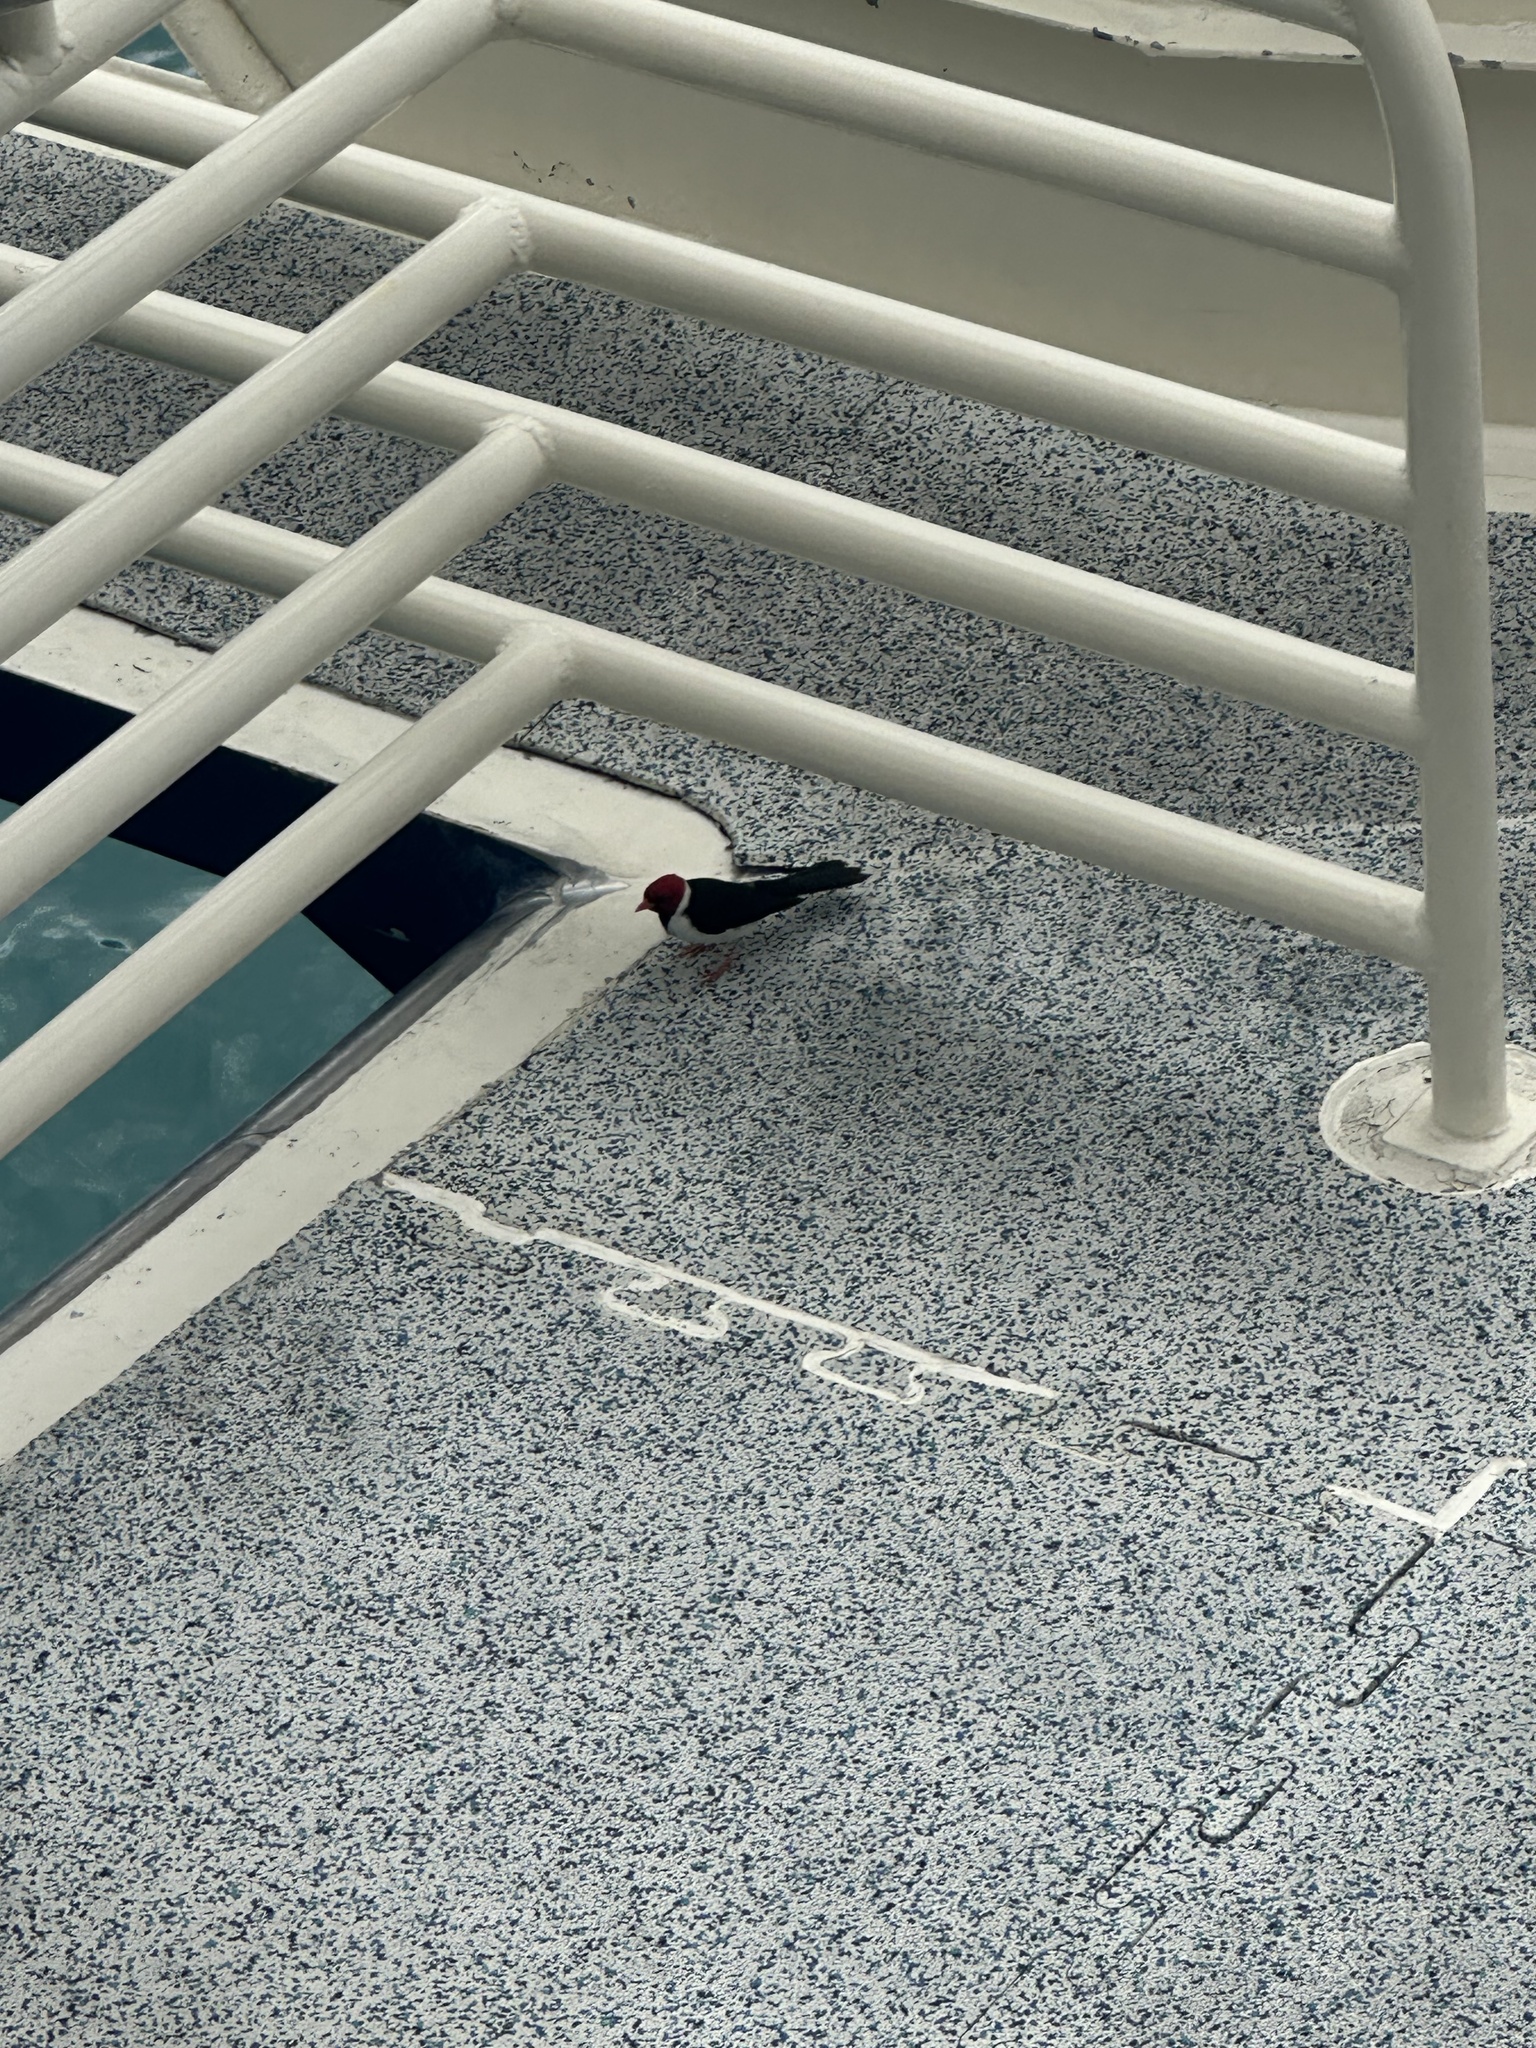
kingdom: Animalia
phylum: Chordata
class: Aves
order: Passeriformes
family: Thraupidae
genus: Paroaria
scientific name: Paroaria capitata
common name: Yellow-billed cardinal
